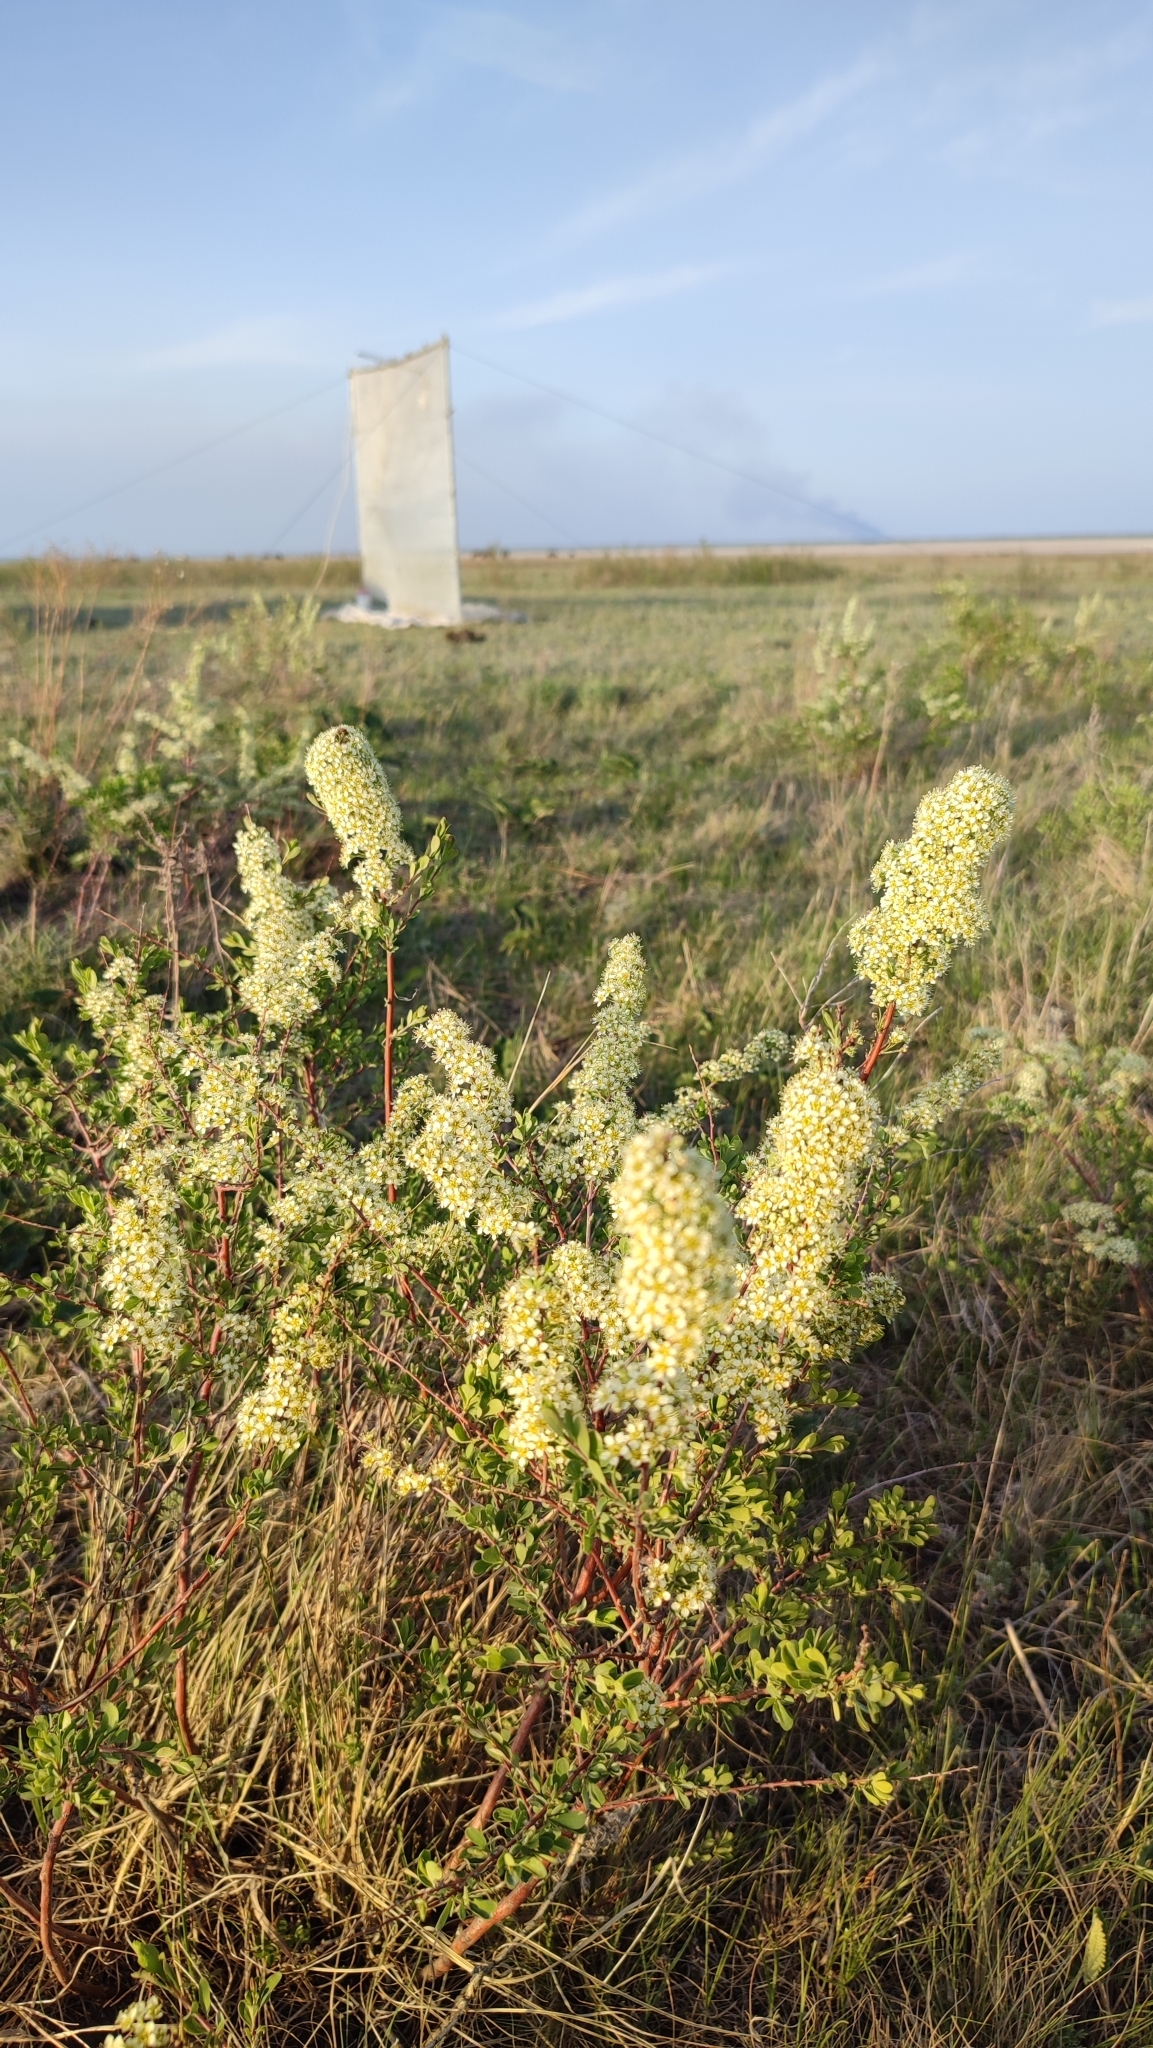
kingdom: Plantae
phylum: Tracheophyta
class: Magnoliopsida
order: Rosales
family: Rosaceae
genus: Spiraea
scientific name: Spiraea crenata
